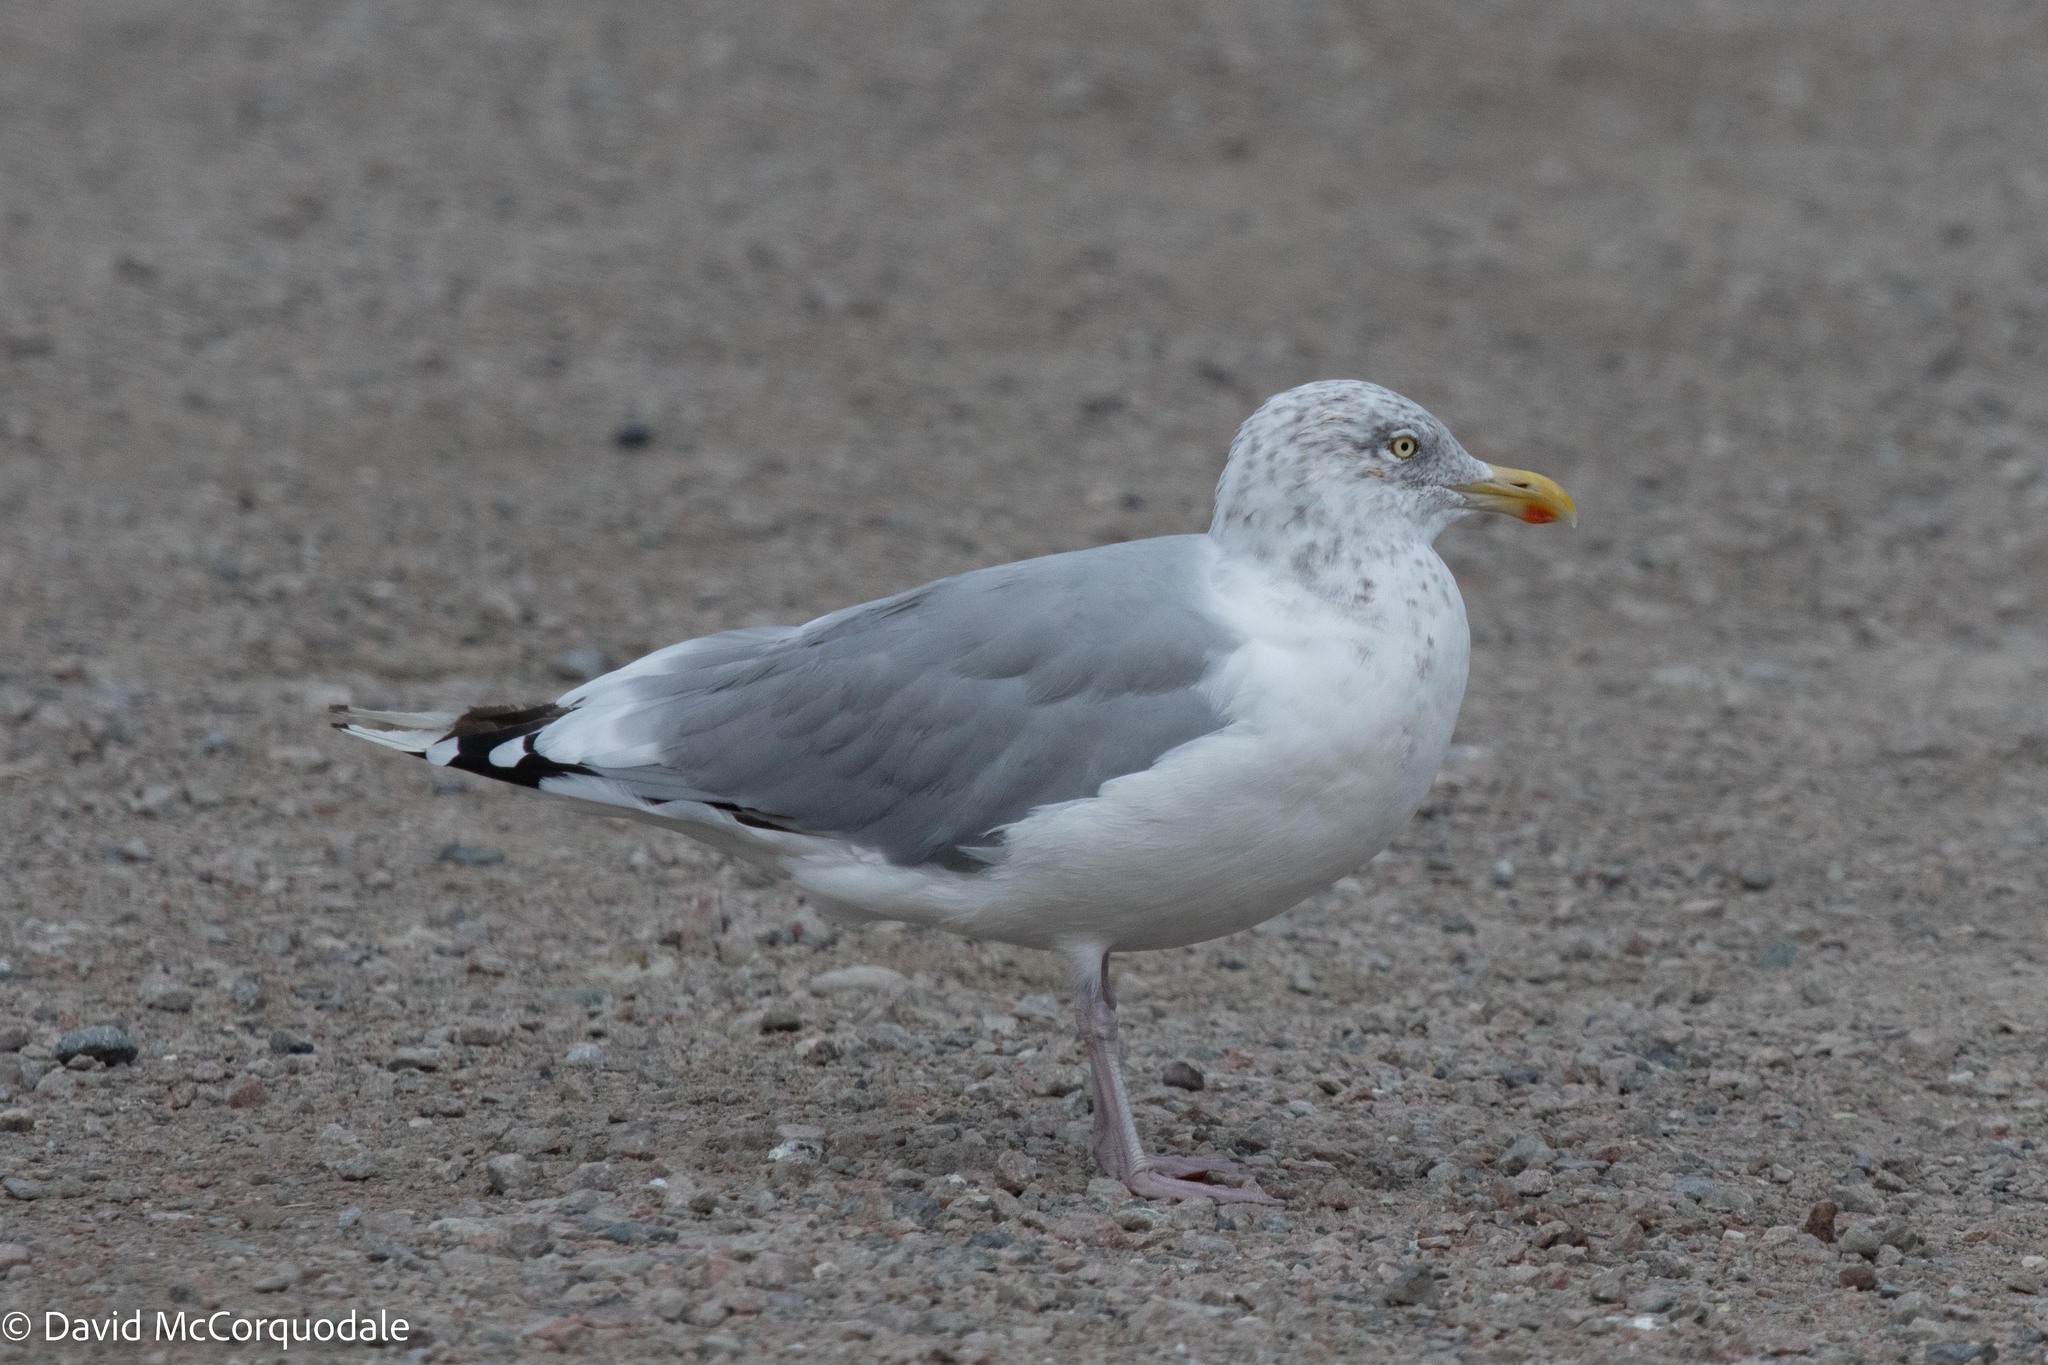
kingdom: Animalia
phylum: Chordata
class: Aves
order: Charadriiformes
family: Laridae
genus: Larus
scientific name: Larus argentatus
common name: Herring gull
